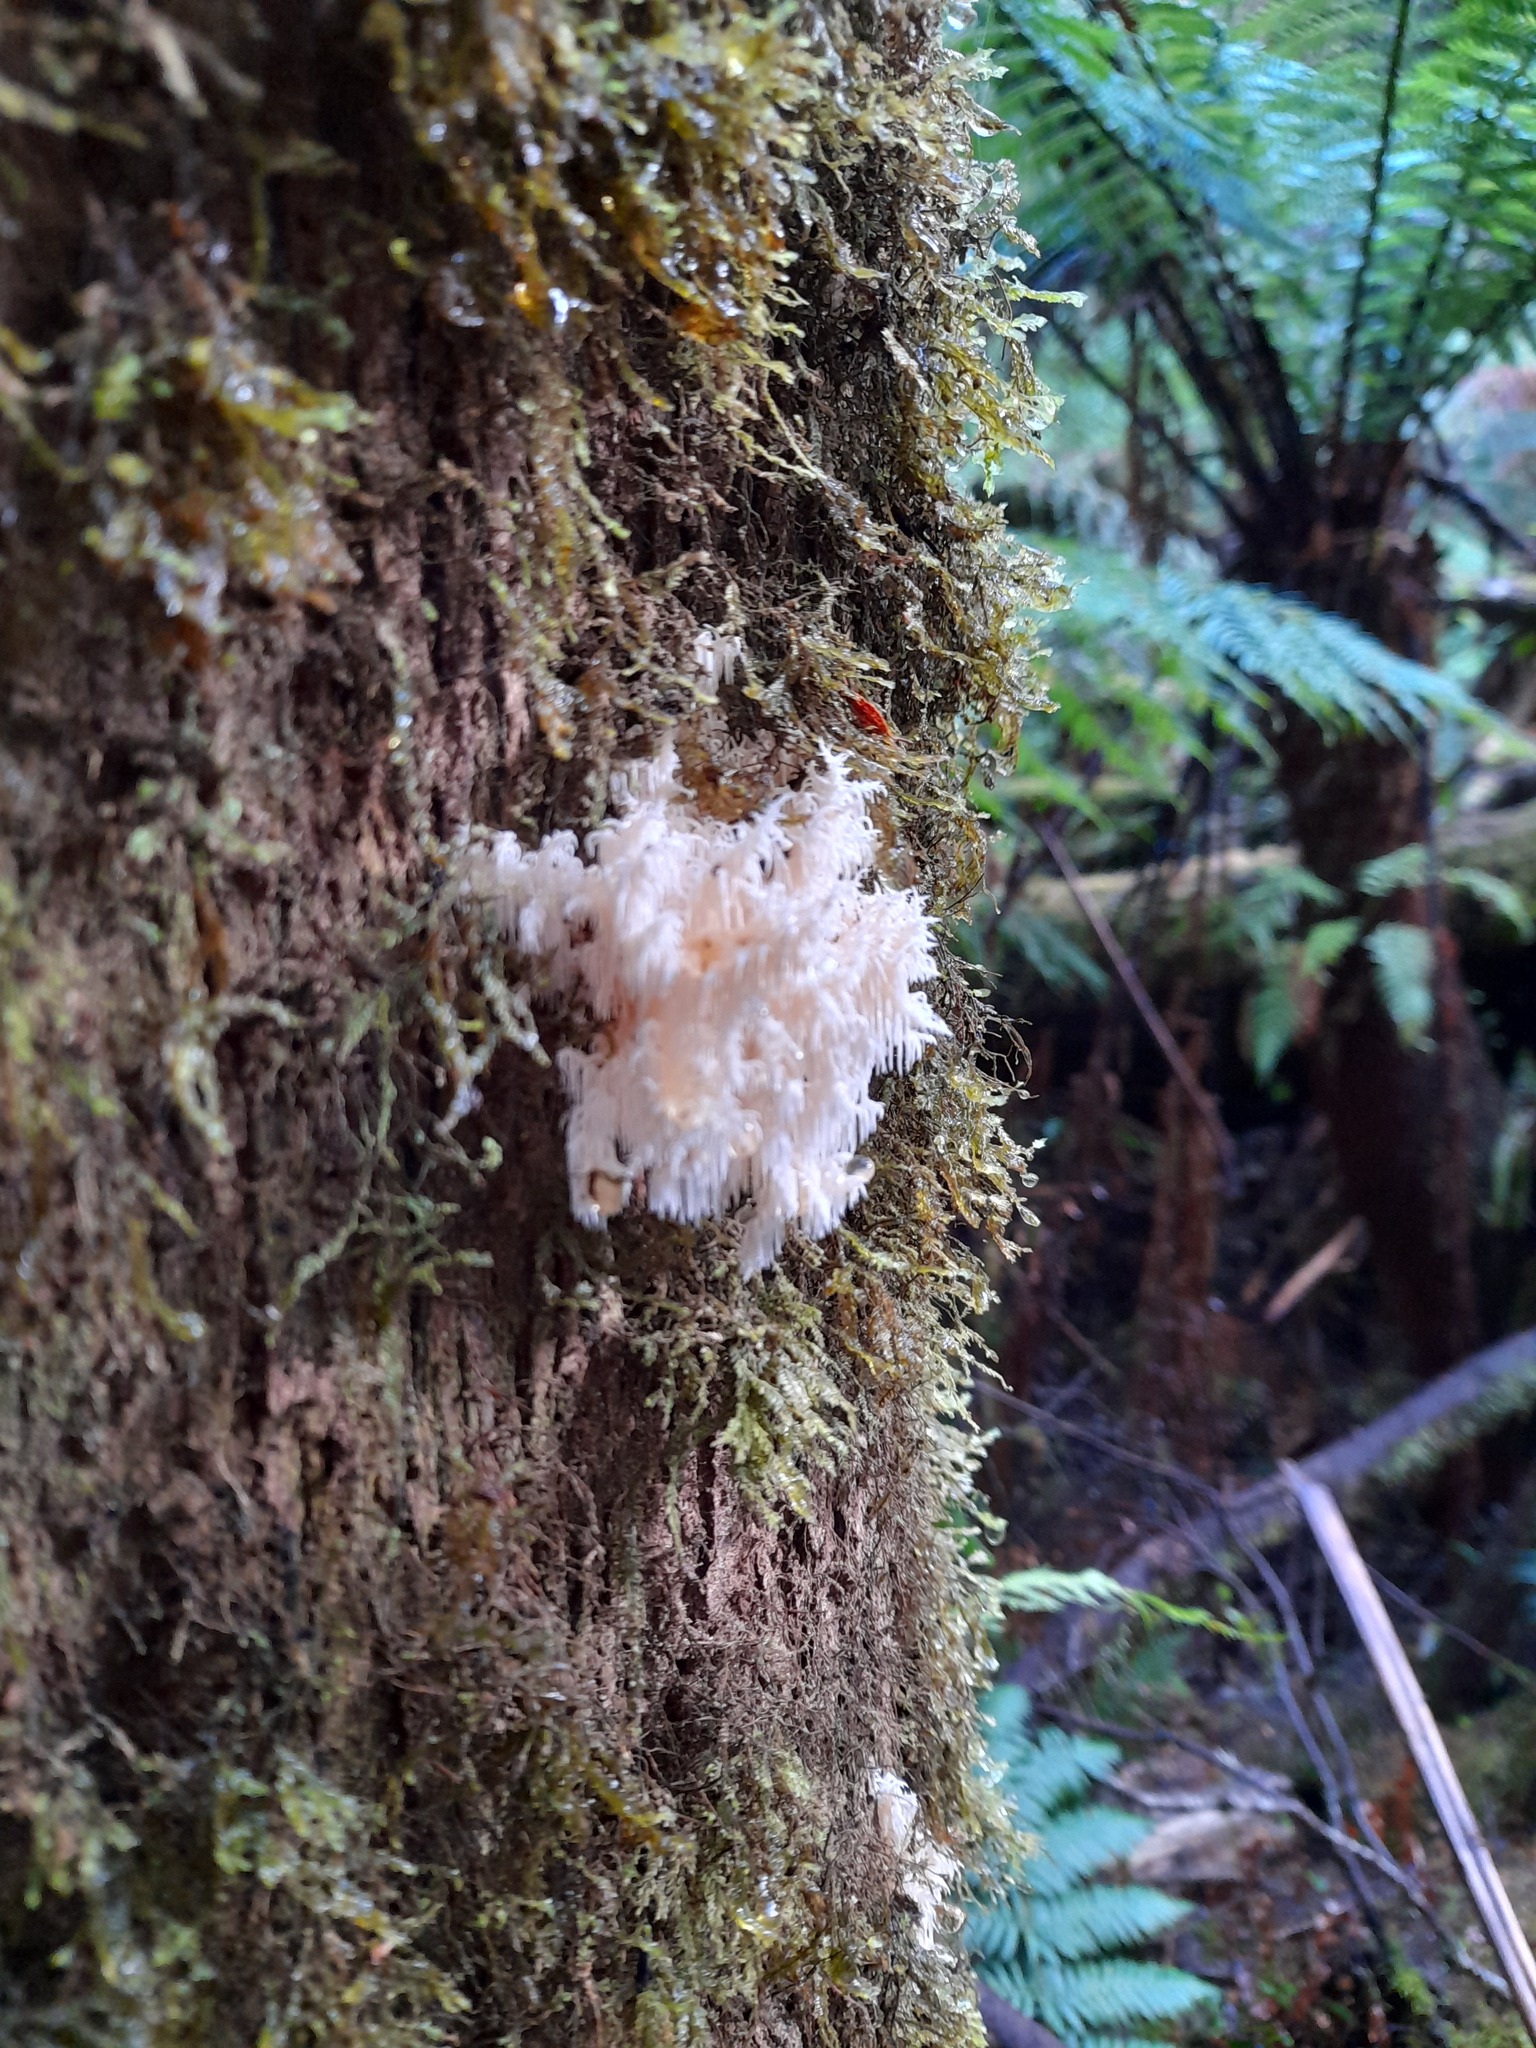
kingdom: Fungi
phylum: Basidiomycota
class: Agaricomycetes
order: Russulales
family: Hericiaceae
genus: Hericium
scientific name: Hericium coralloides
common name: Coral tooth
